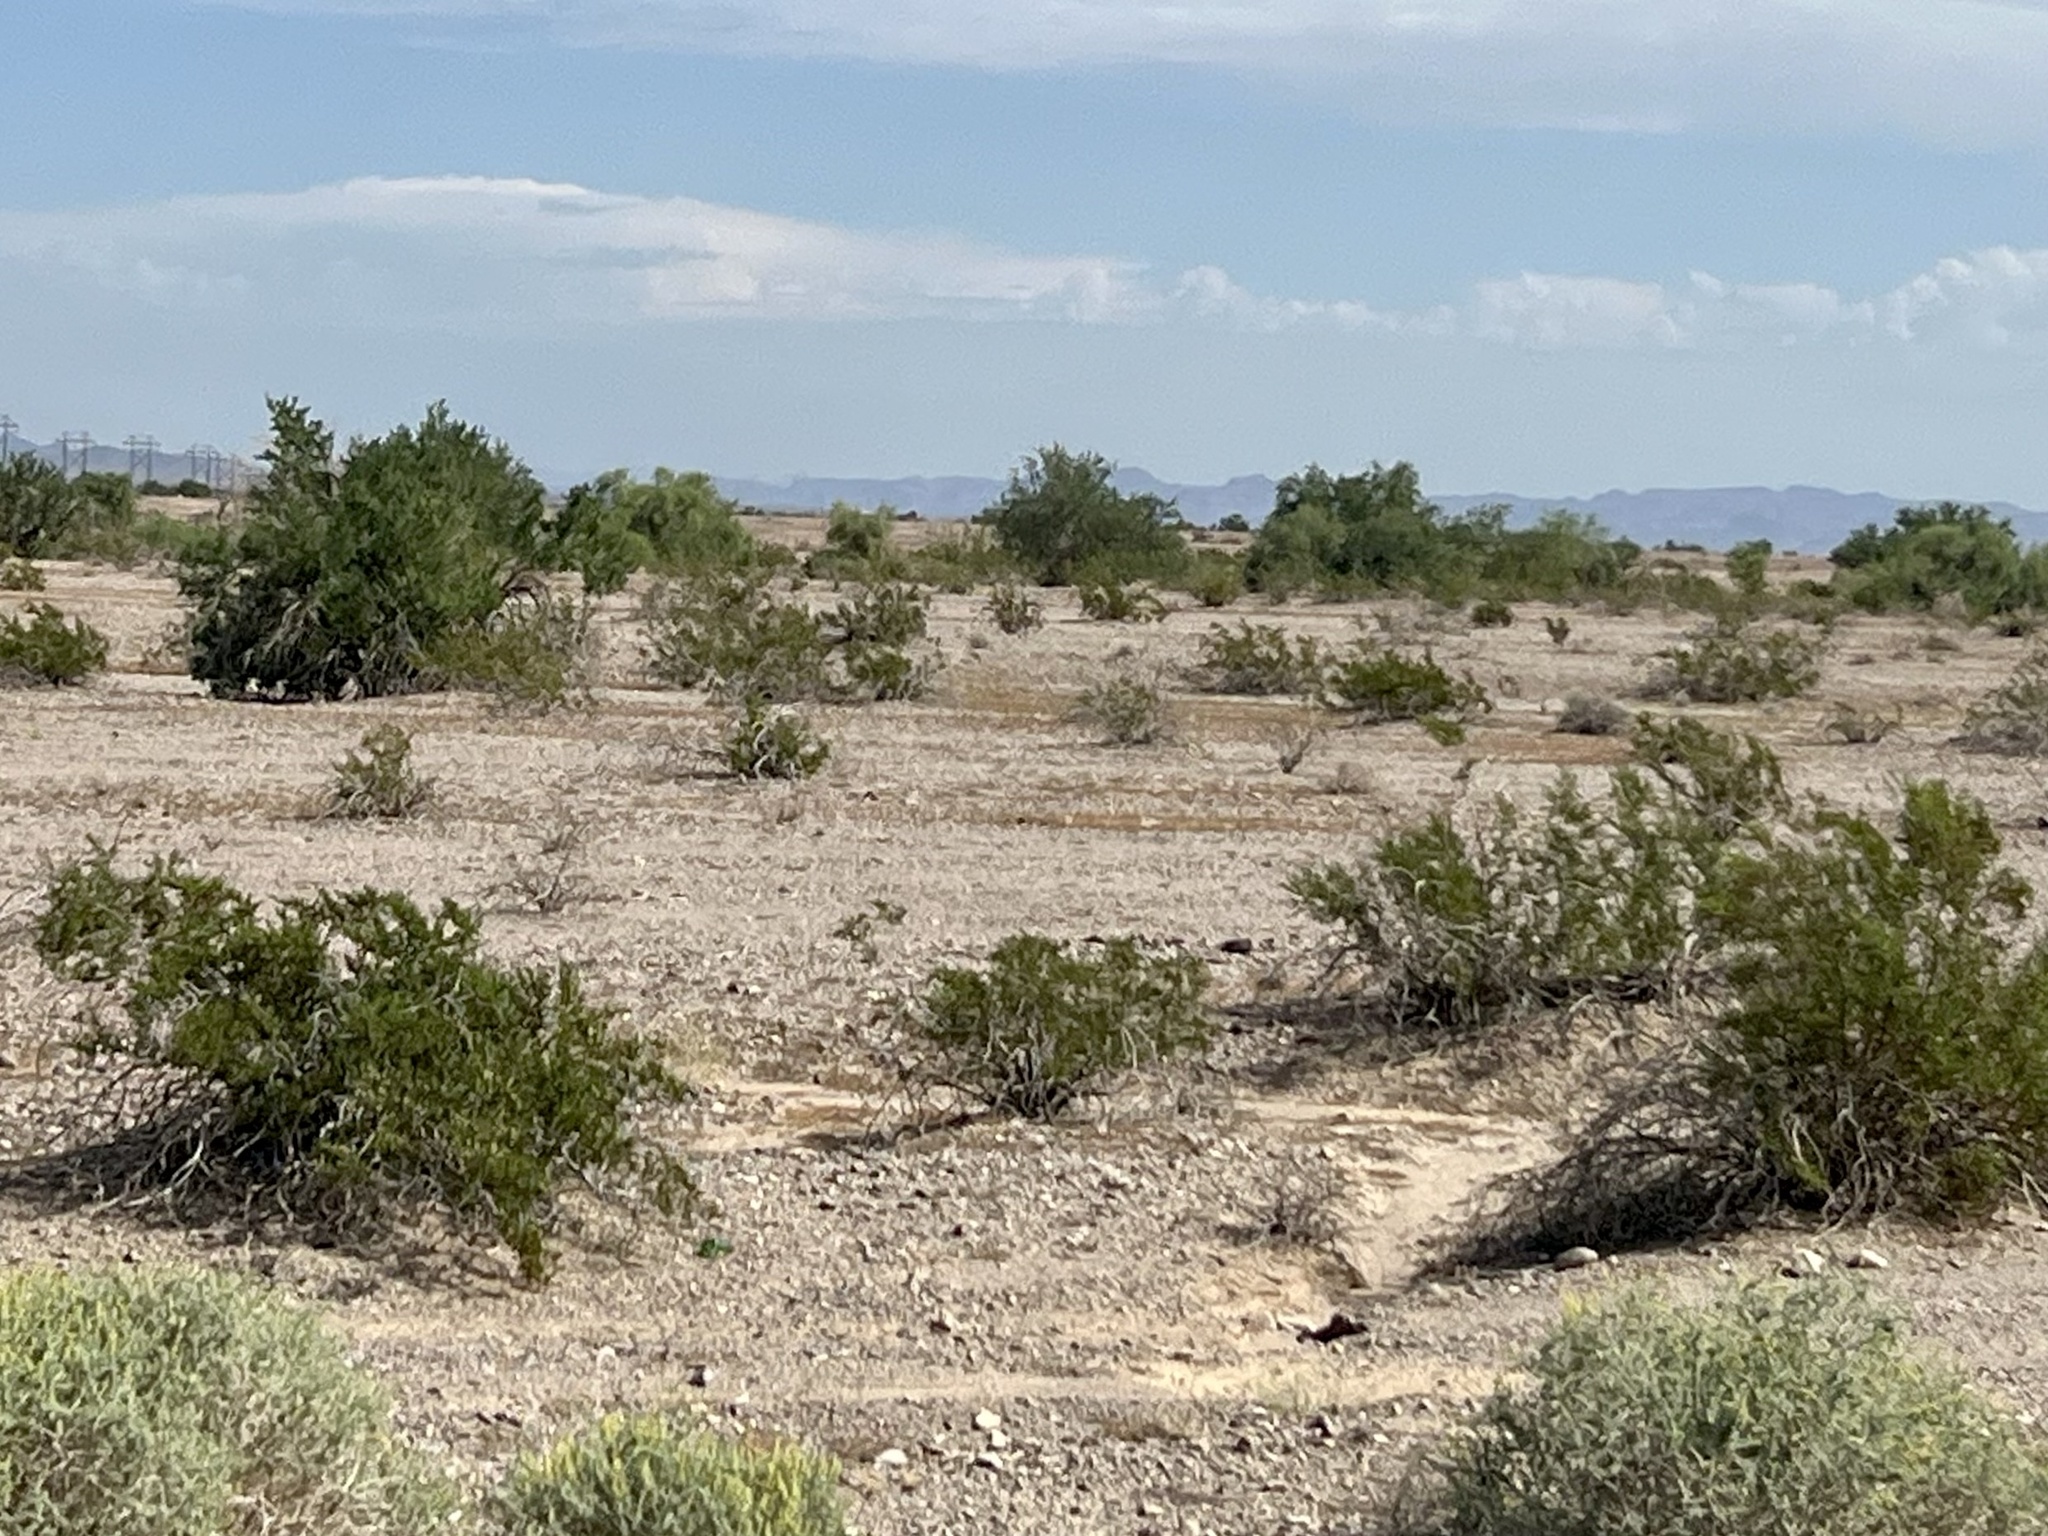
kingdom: Plantae
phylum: Tracheophyta
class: Magnoliopsida
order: Zygophyllales
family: Zygophyllaceae
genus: Larrea
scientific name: Larrea tridentata
